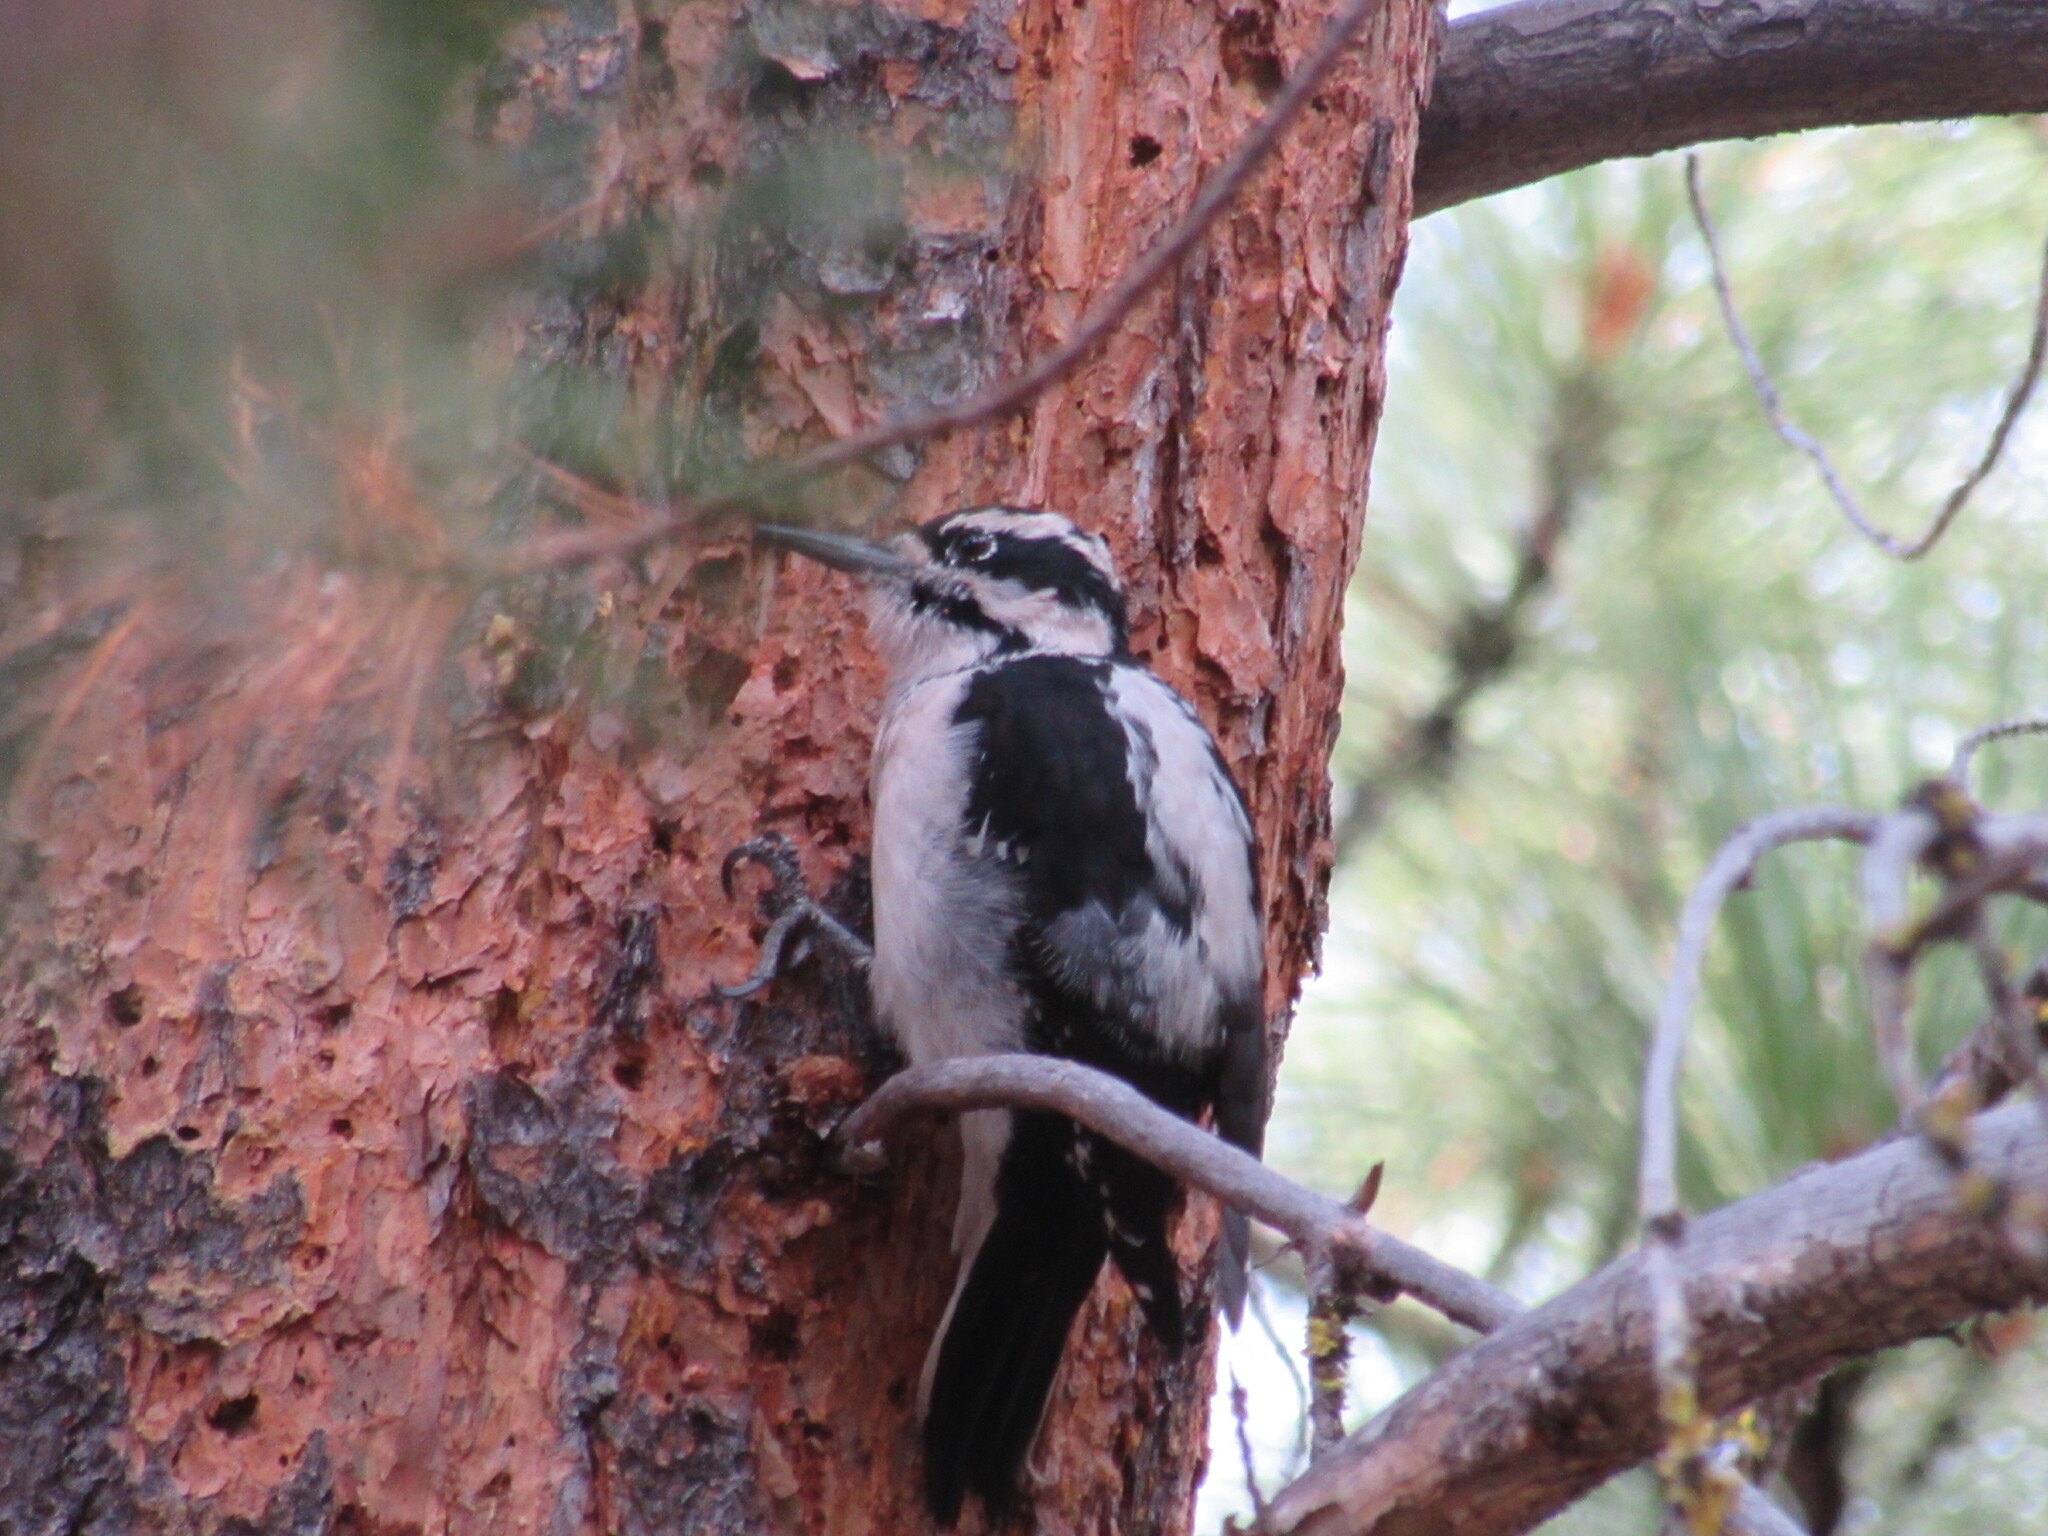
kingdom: Animalia
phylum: Chordata
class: Aves
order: Piciformes
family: Picidae
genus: Leuconotopicus
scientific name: Leuconotopicus villosus
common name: Hairy woodpecker
